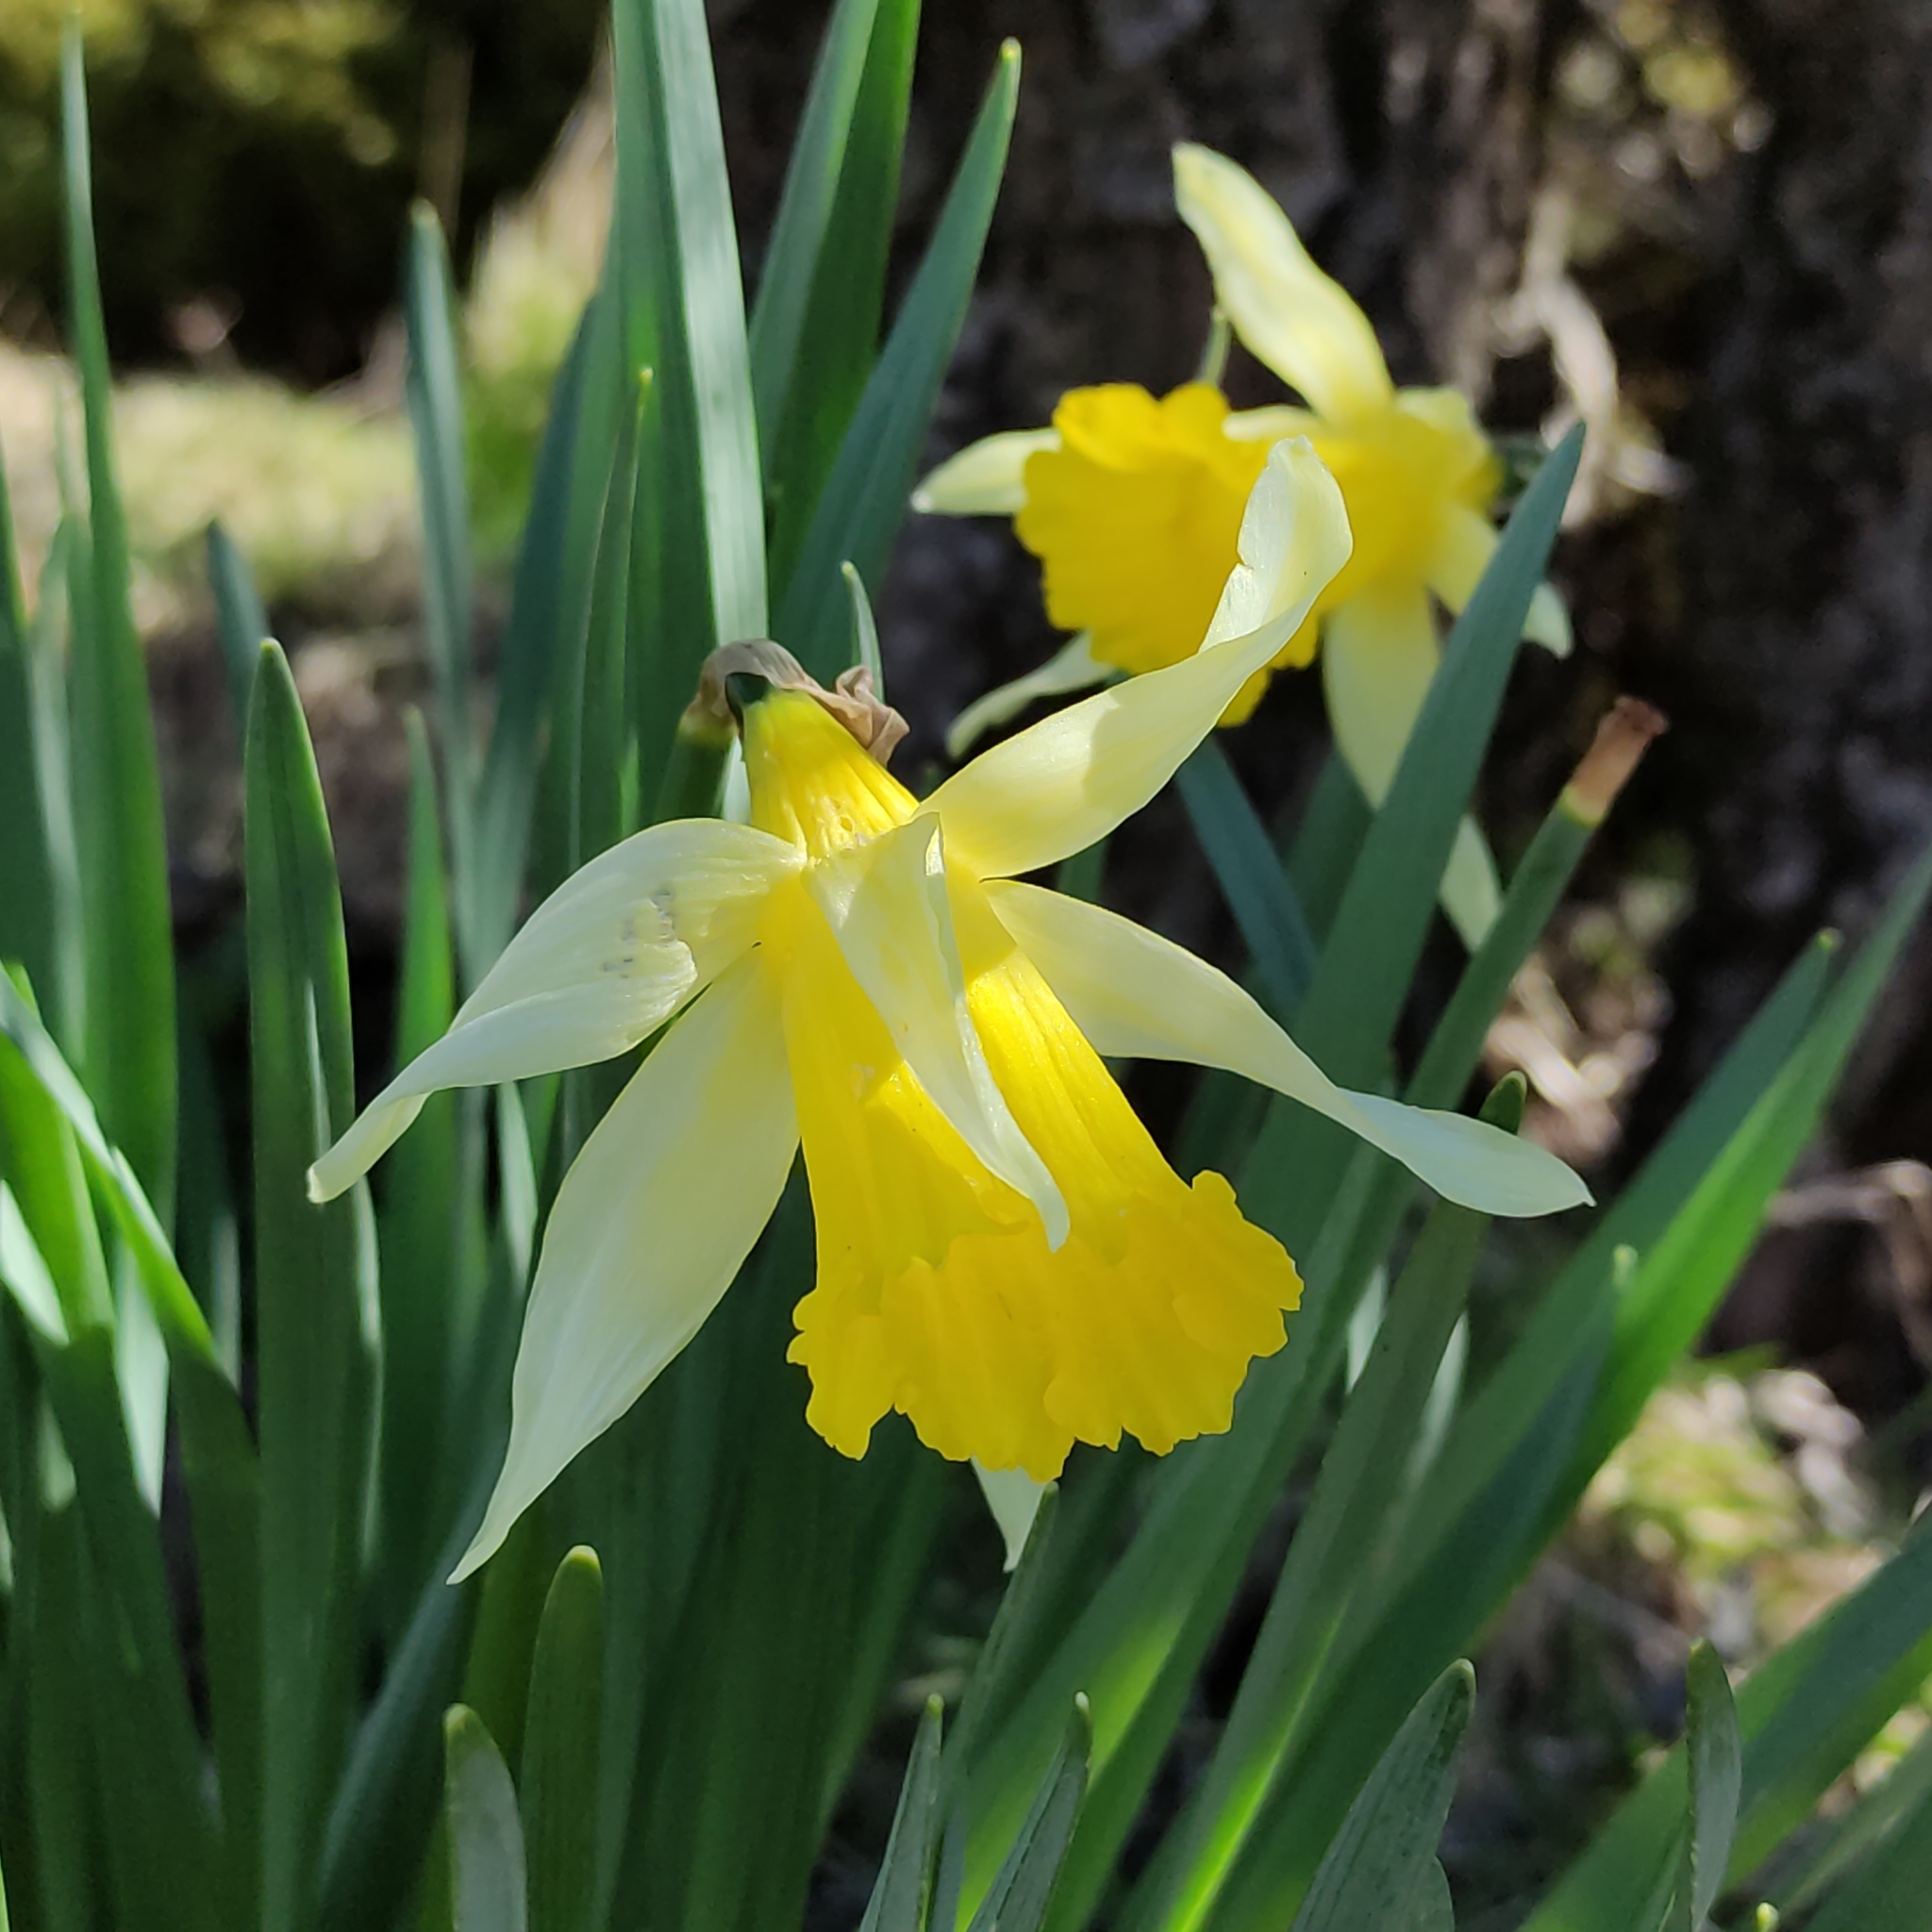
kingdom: Plantae
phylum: Tracheophyta
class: Liliopsida
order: Asparagales
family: Amaryllidaceae
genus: Narcissus
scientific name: Narcissus pseudonarcissus
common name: Daffodil
